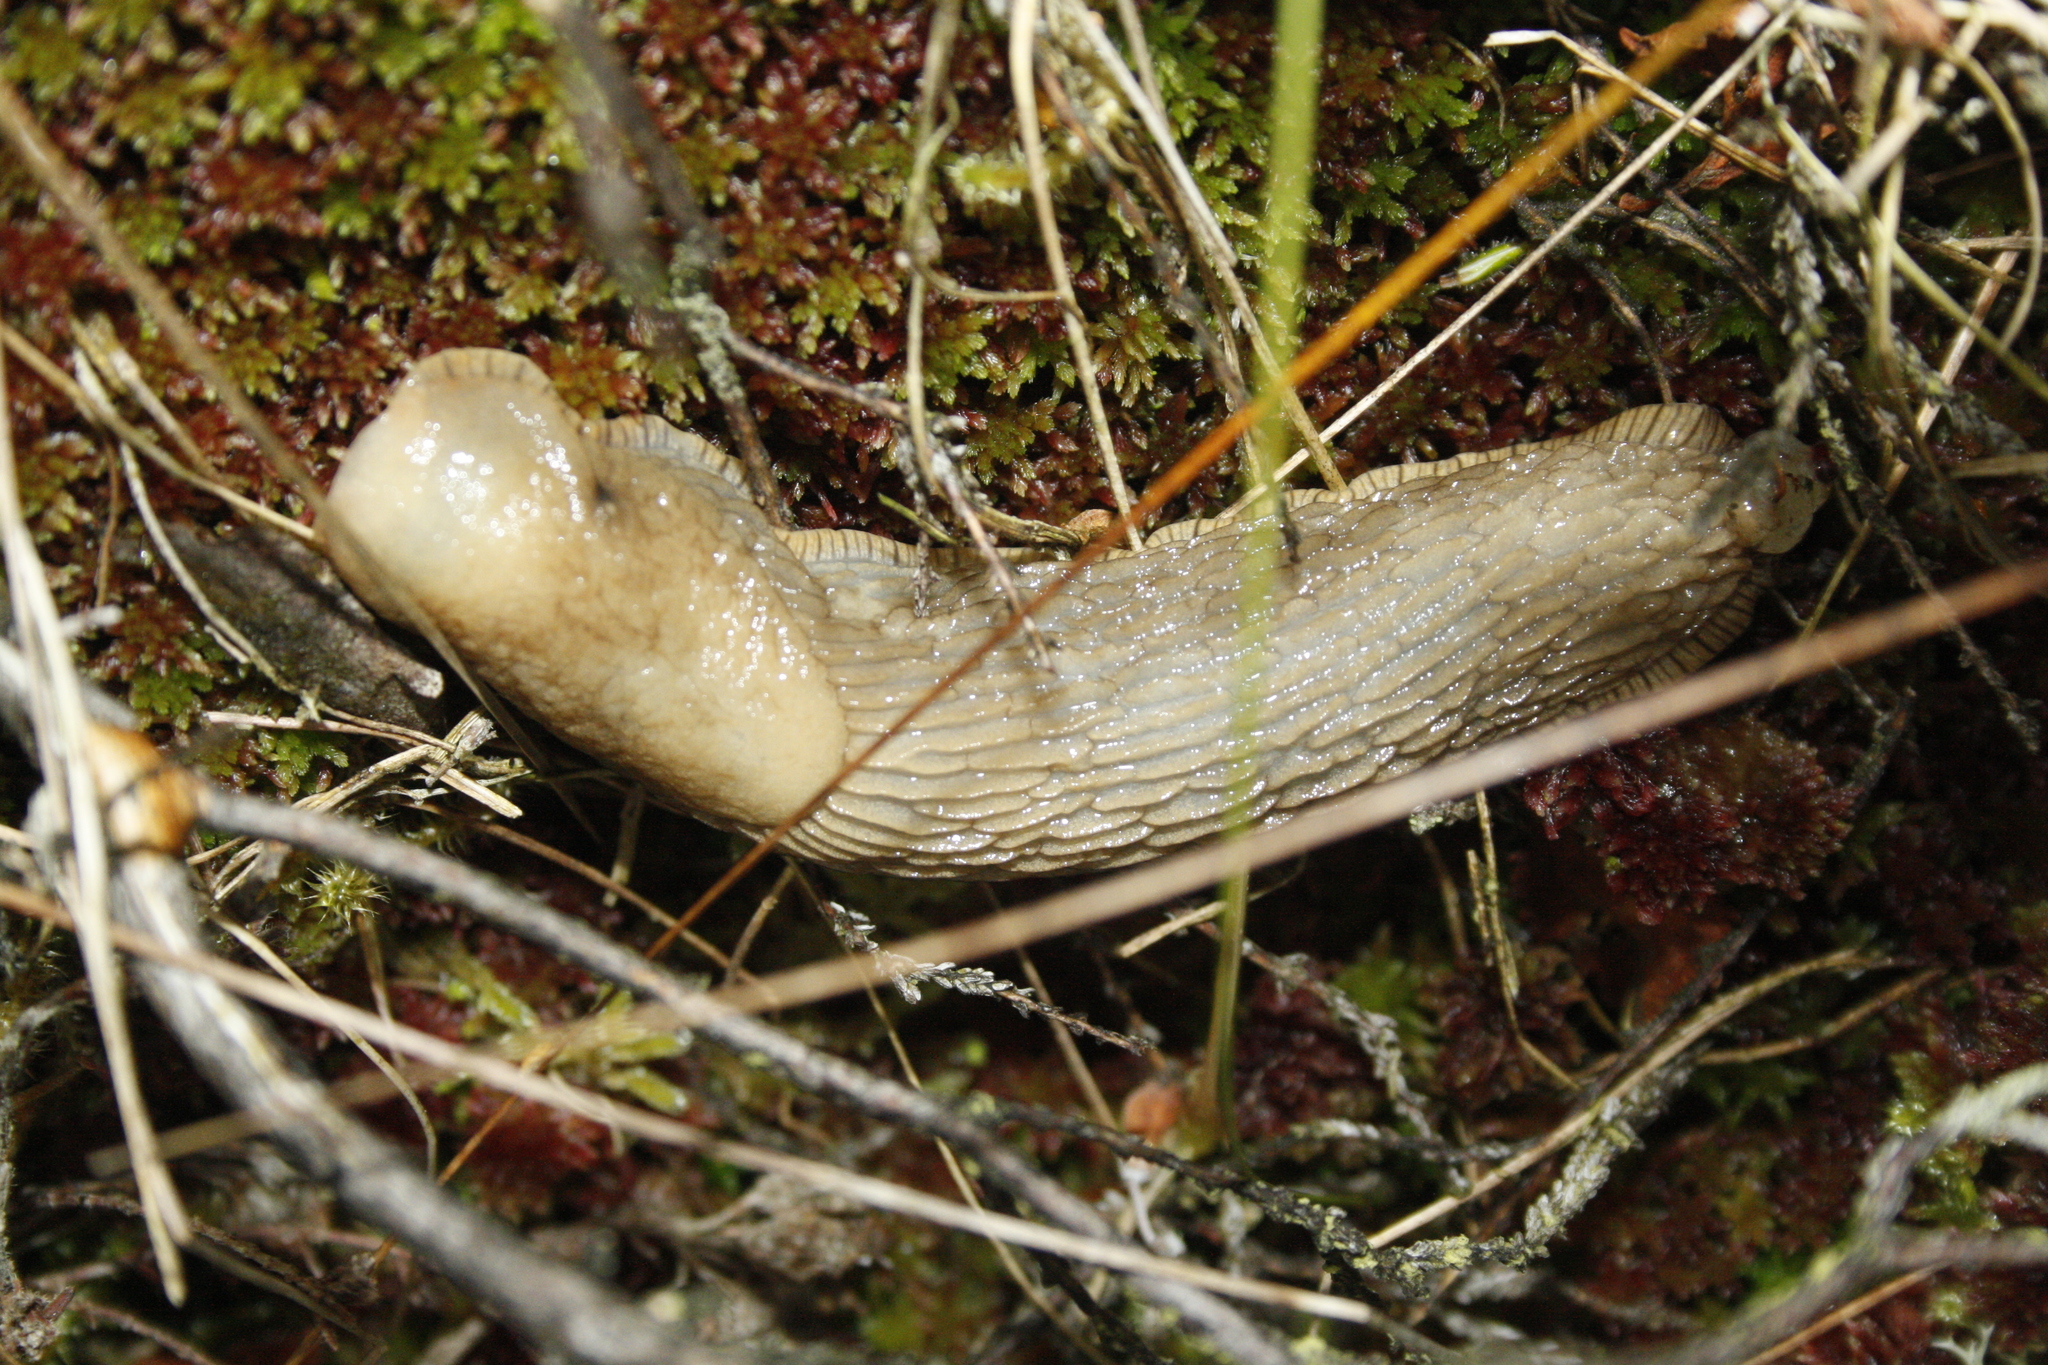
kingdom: Animalia
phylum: Mollusca
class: Gastropoda
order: Stylommatophora
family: Arionidae
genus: Arion
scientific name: Arion ater
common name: Black arion
